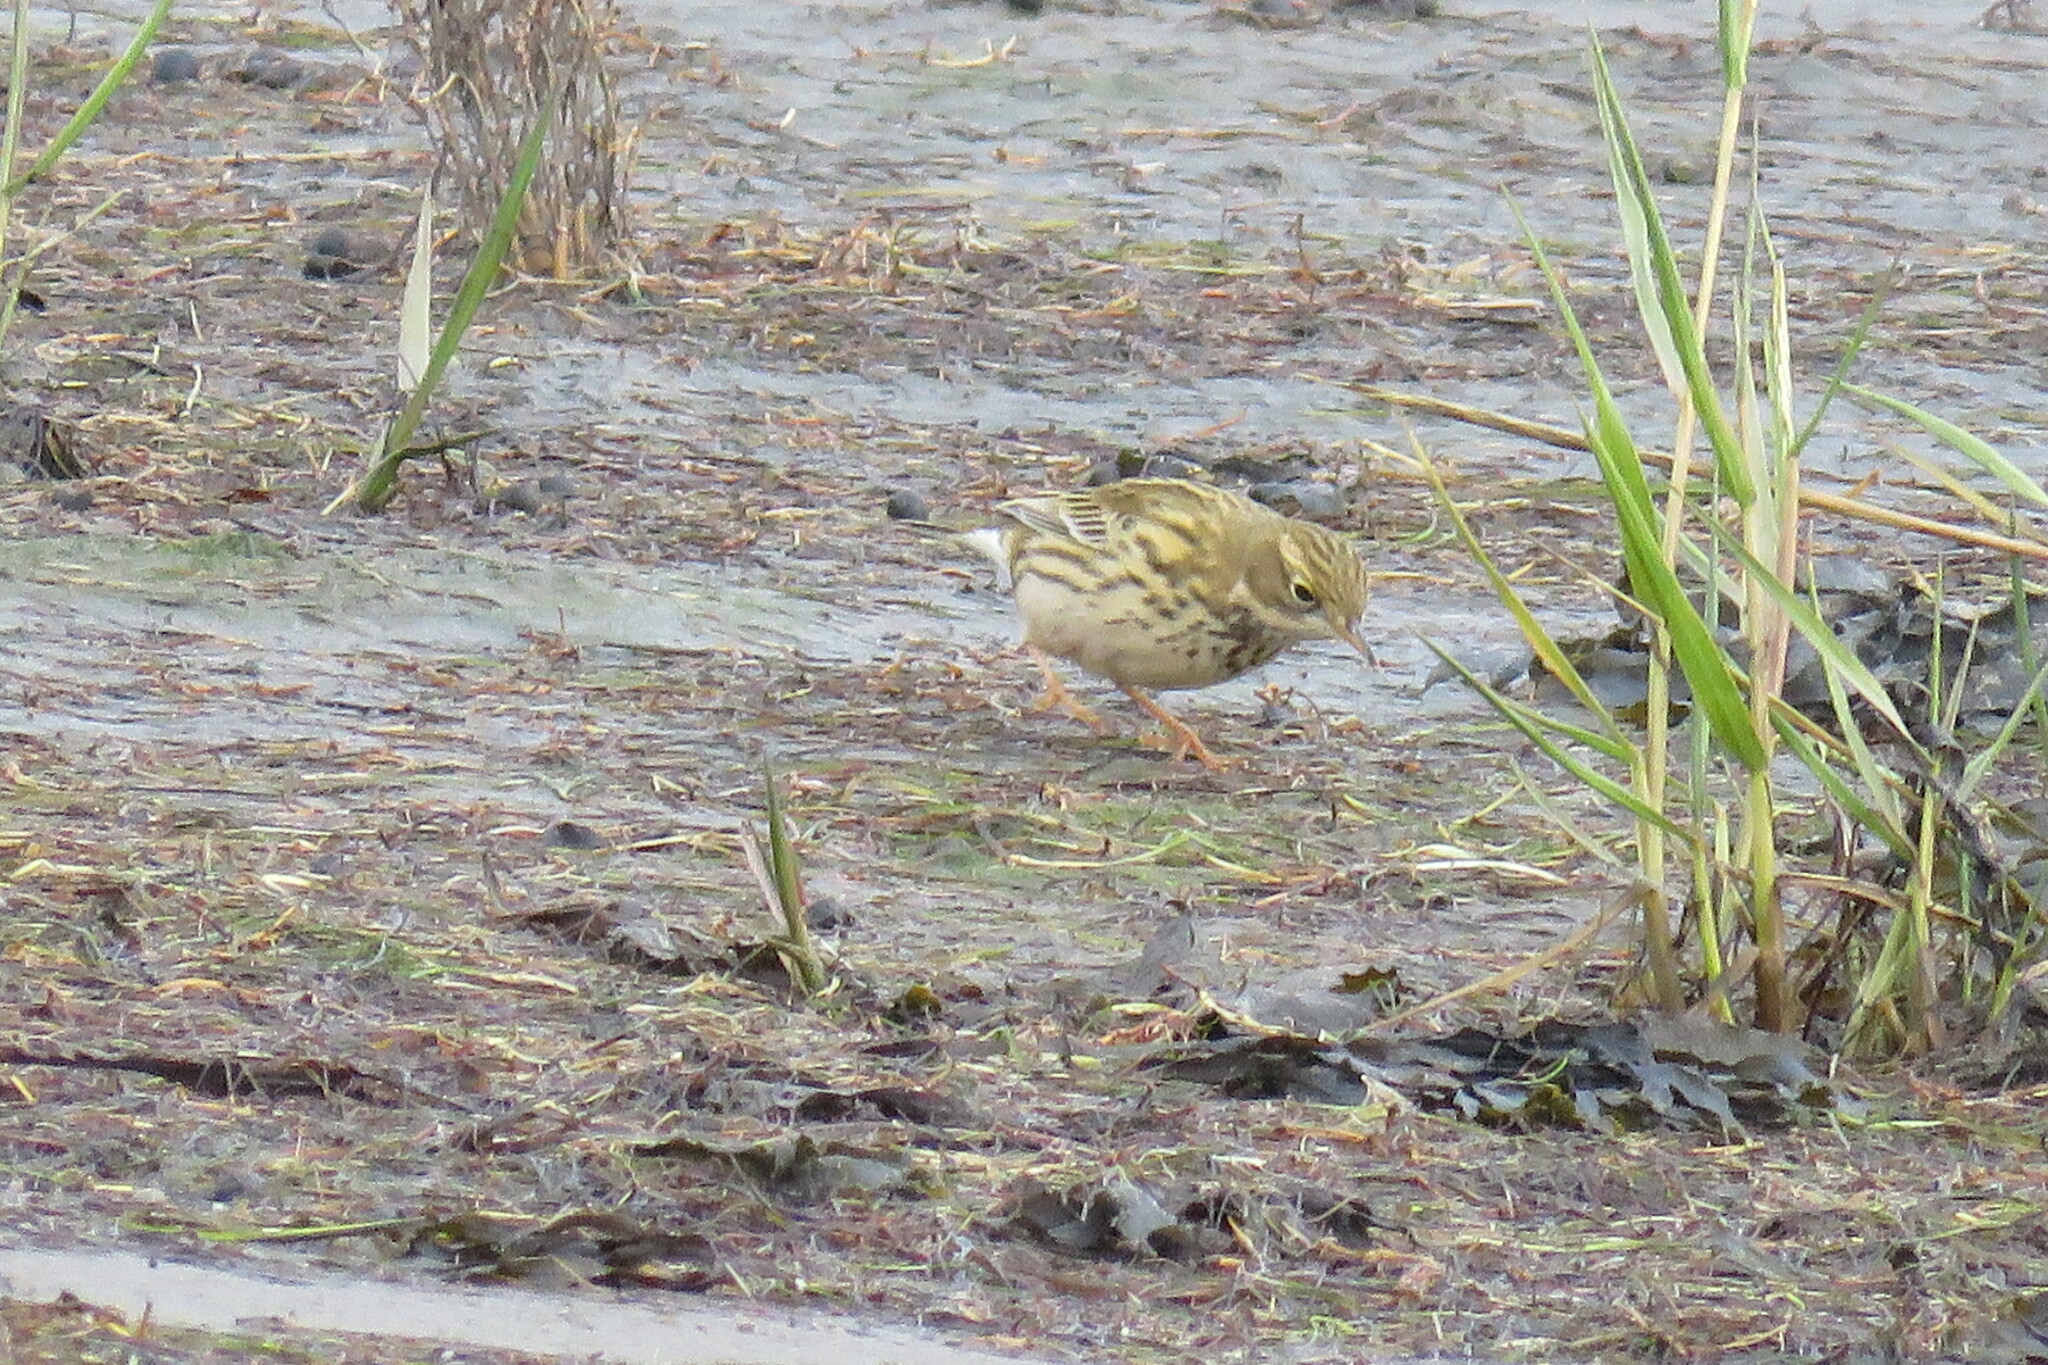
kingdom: Animalia
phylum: Chordata
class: Aves
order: Passeriformes
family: Motacillidae
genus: Anthus
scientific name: Anthus pratensis
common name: Meadow pipit
